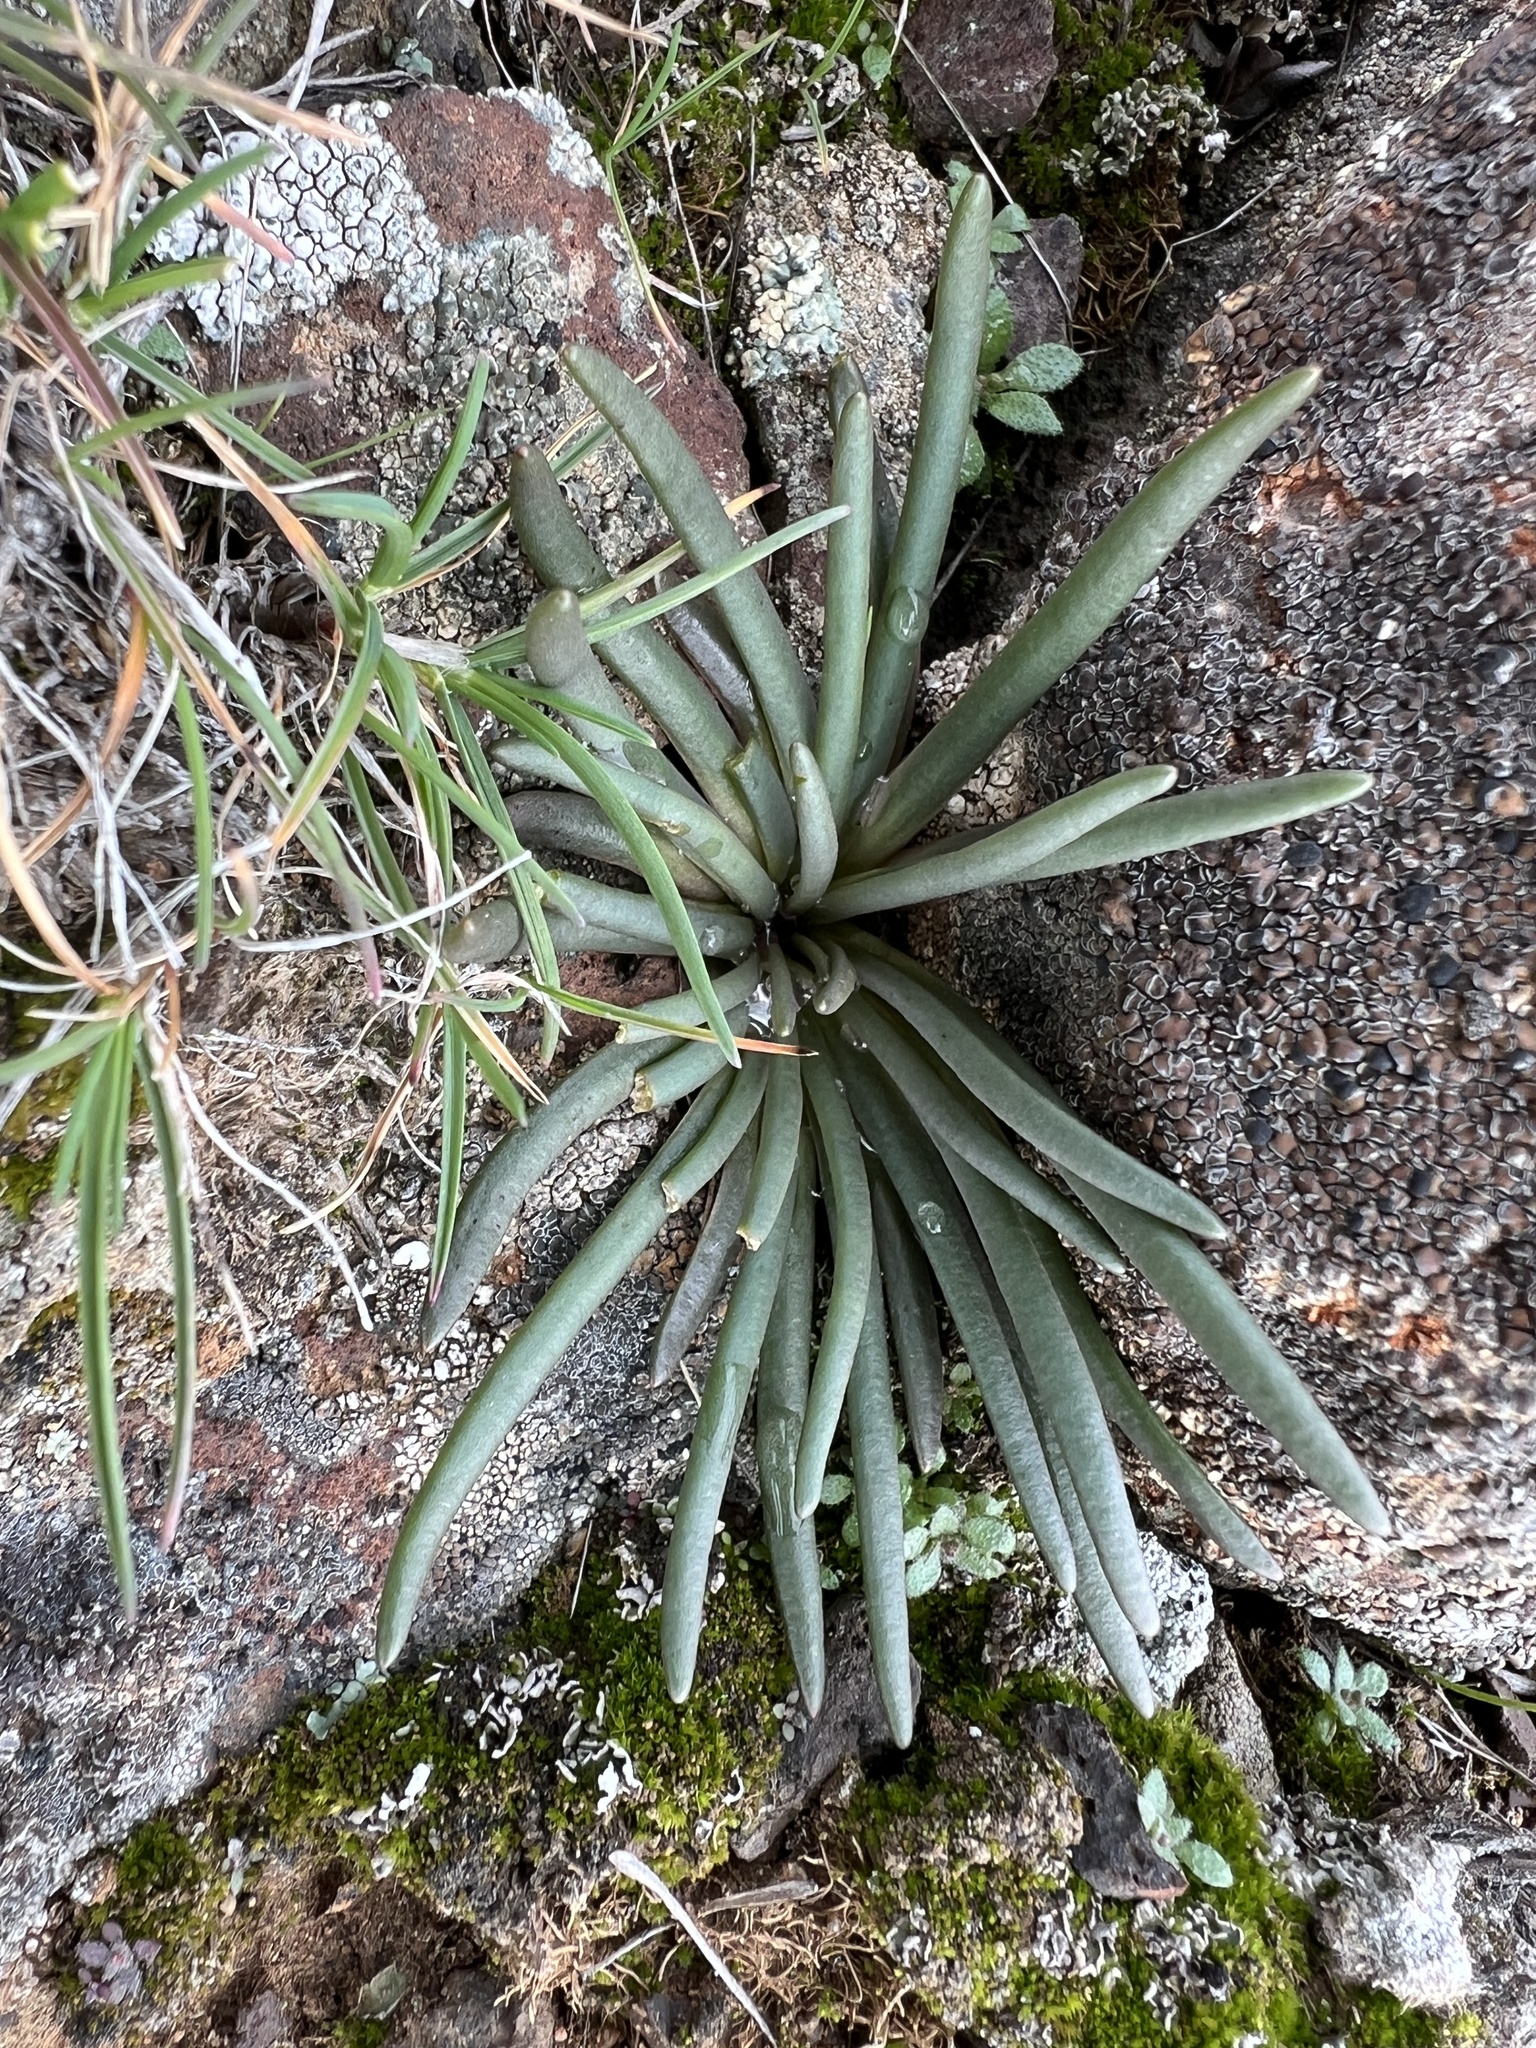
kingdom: Plantae
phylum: Tracheophyta
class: Magnoliopsida
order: Caryophyllales
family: Montiaceae
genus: Lewisia
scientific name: Lewisia rediviva
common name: Bitter-root
